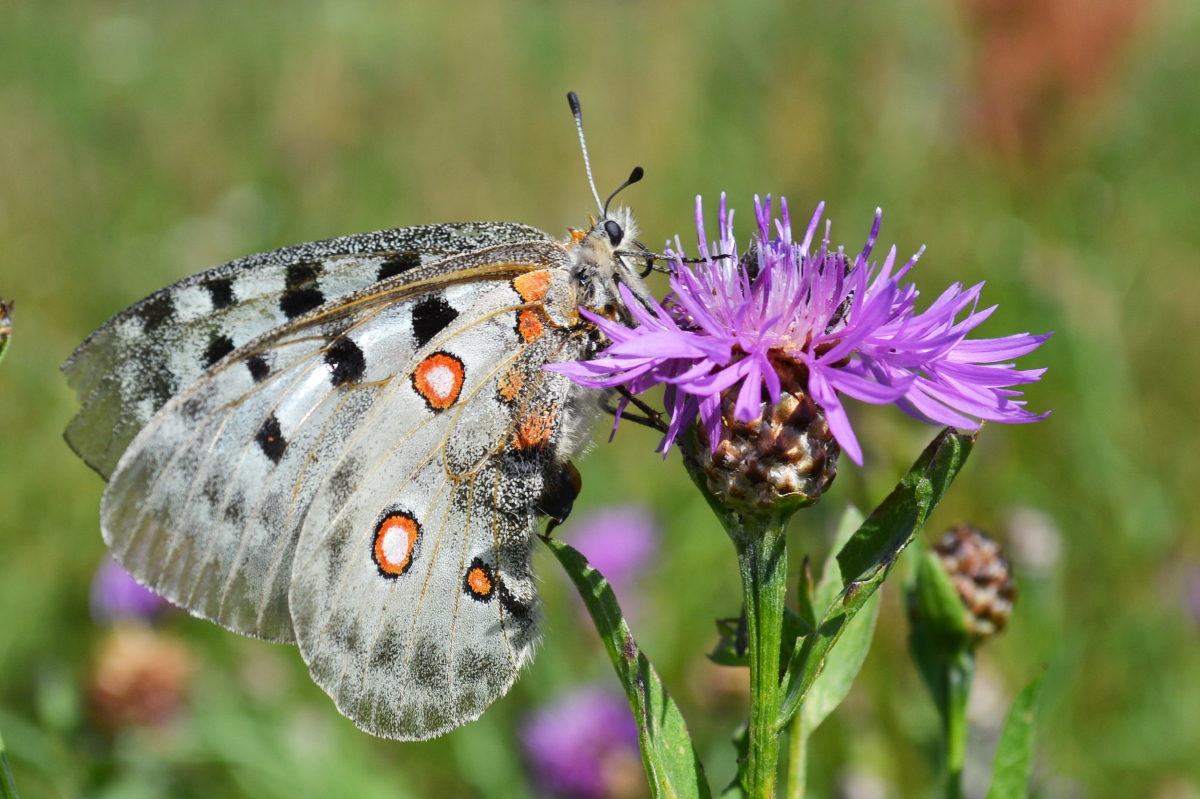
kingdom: Animalia
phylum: Arthropoda
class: Insecta
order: Lepidoptera
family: Papilionidae
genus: Parnassius
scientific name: Parnassius apollo
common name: Apollo
